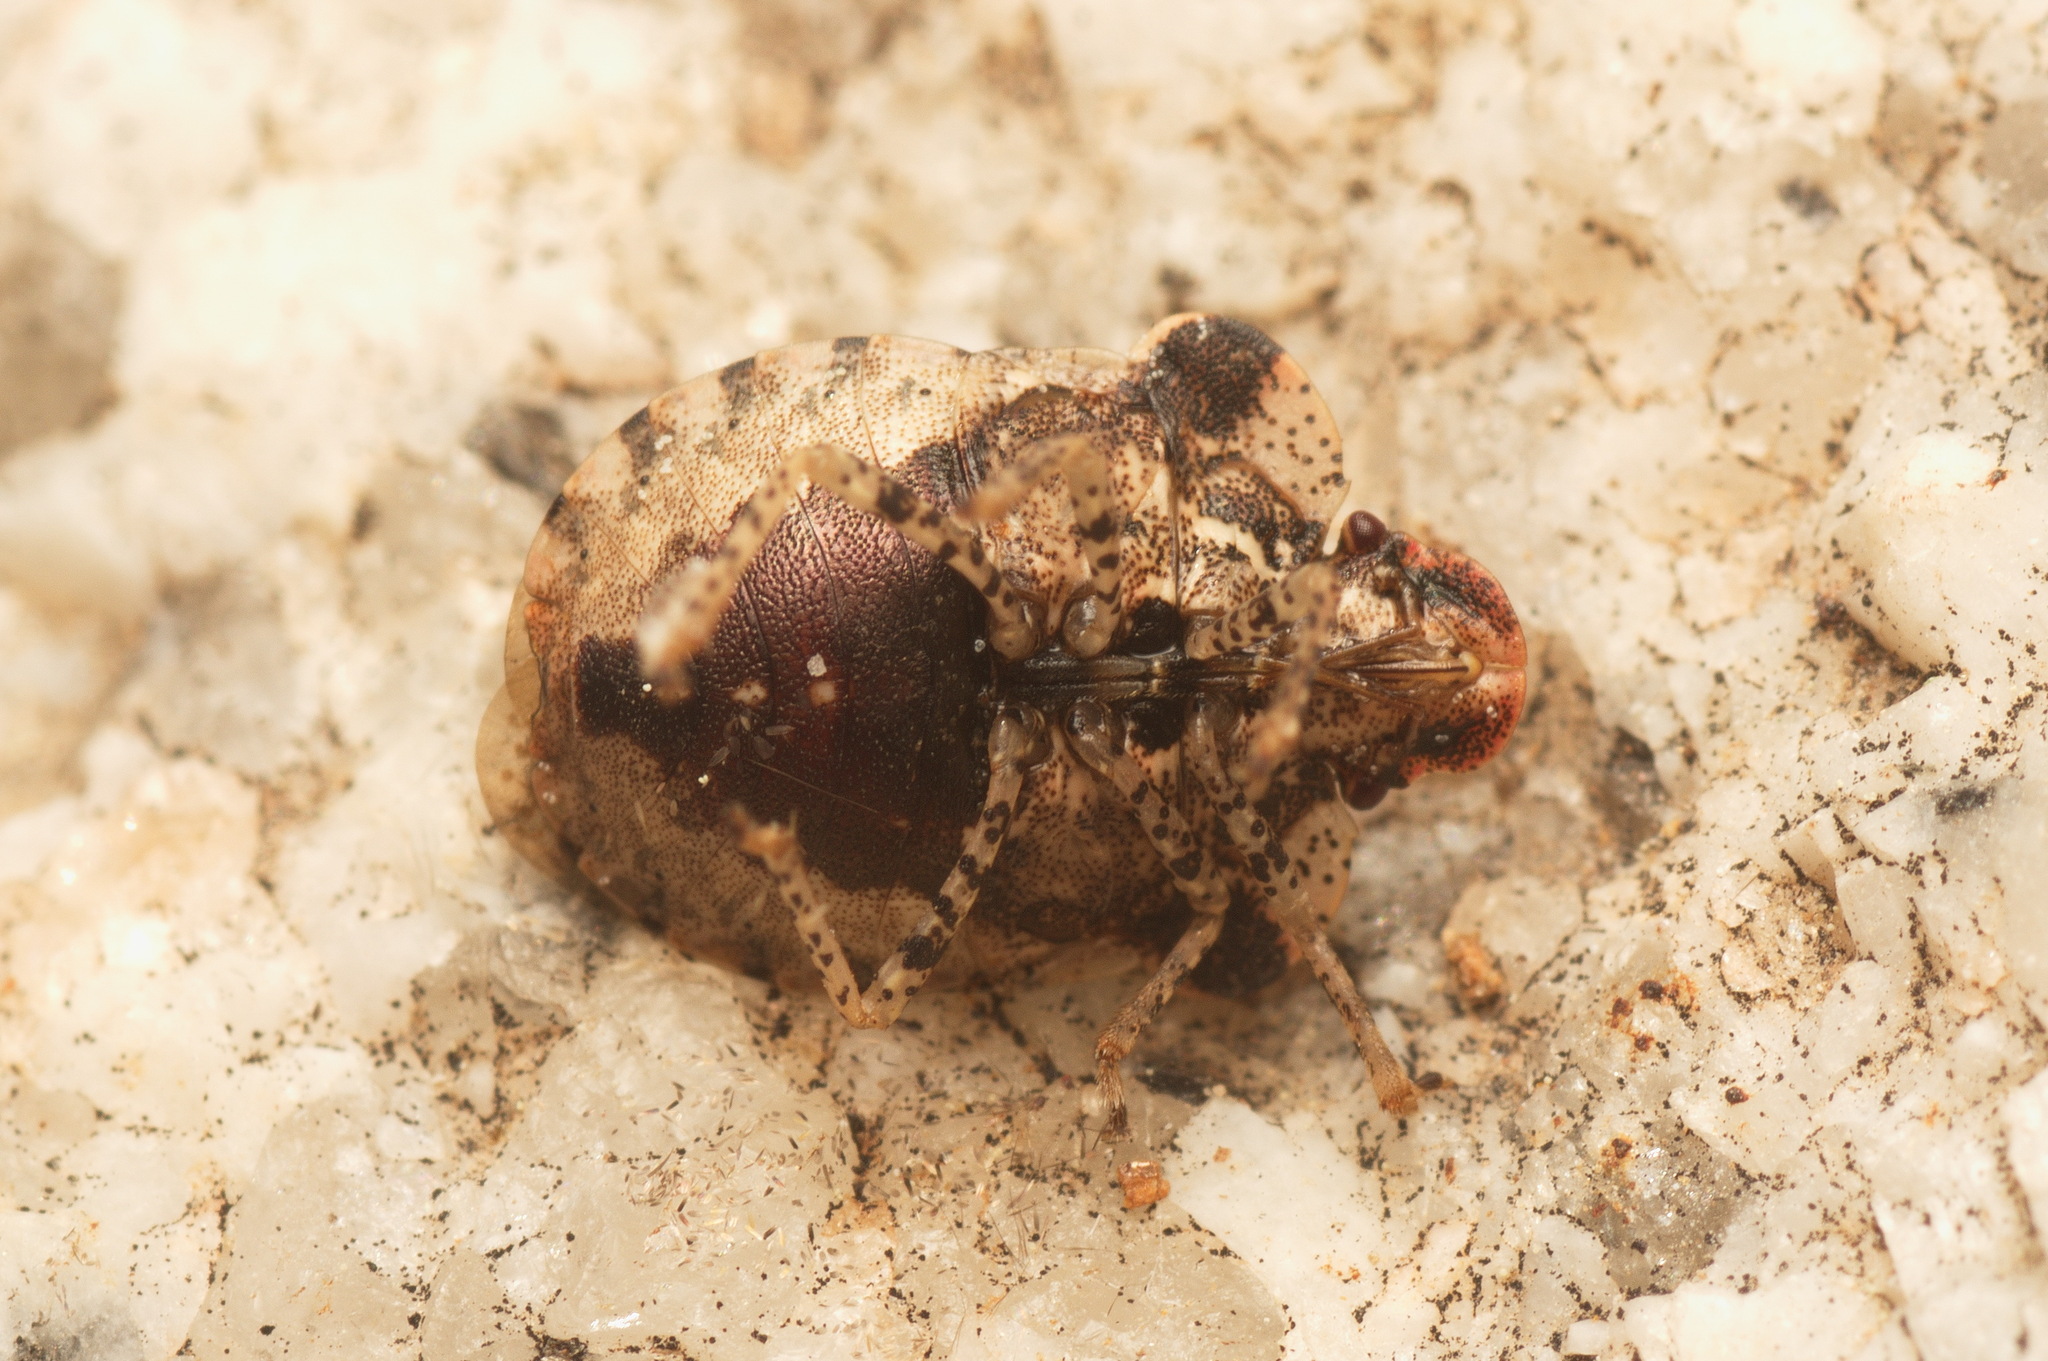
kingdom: Animalia
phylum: Arthropoda
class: Insecta
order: Hemiptera
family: Pentatomidae
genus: Dyroderes
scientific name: Dyroderes umbraculatus
